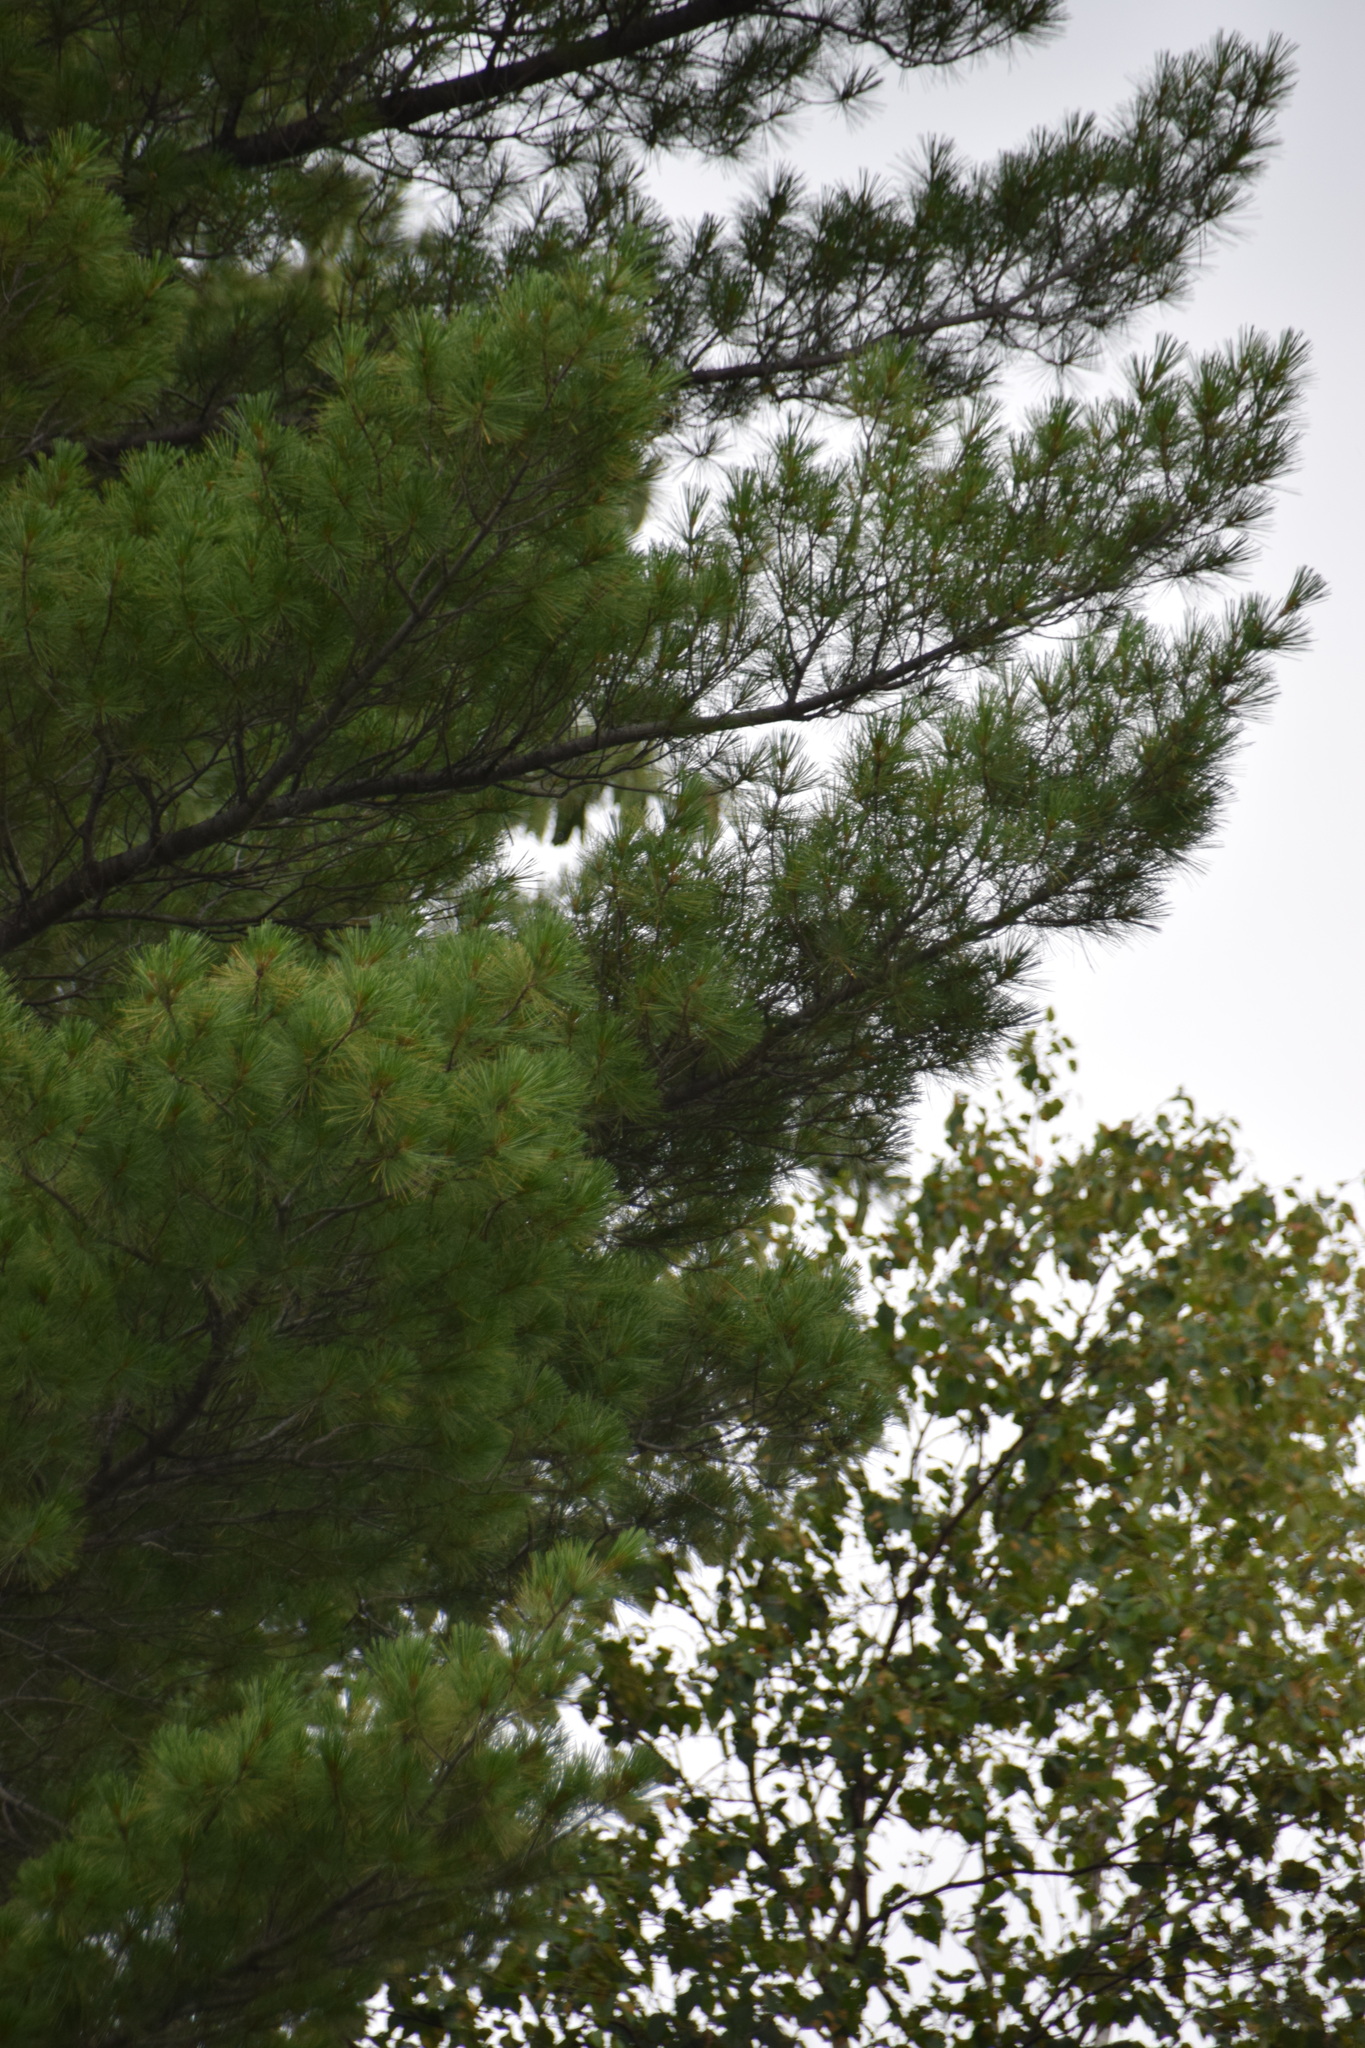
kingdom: Plantae
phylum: Tracheophyta
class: Pinopsida
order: Pinales
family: Pinaceae
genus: Pinus
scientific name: Pinus strobus
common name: Weymouth pine
